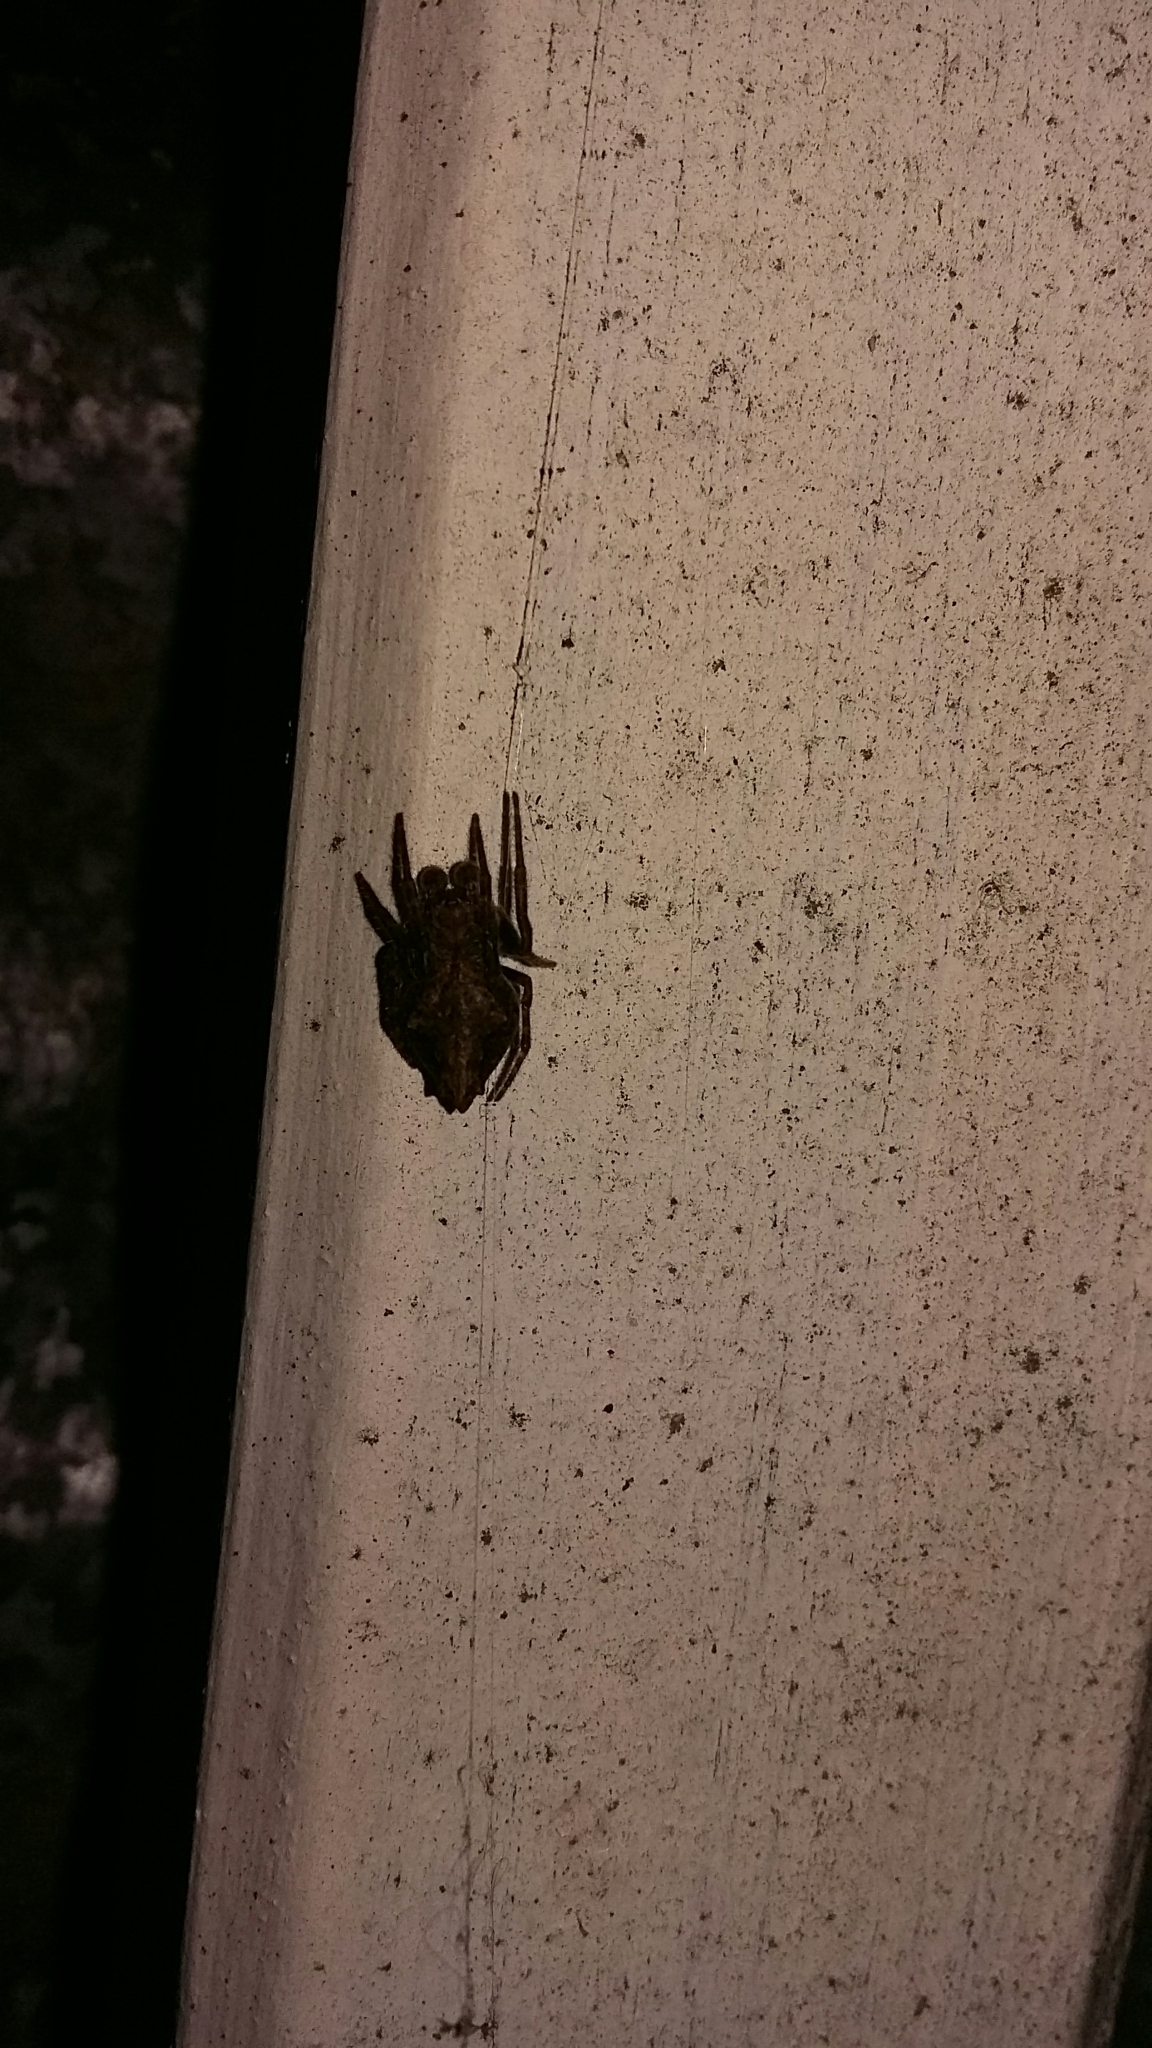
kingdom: Animalia
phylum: Arthropoda
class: Arachnida
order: Araneae
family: Araneidae
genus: Eriophora
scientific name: Eriophora pustulosa
